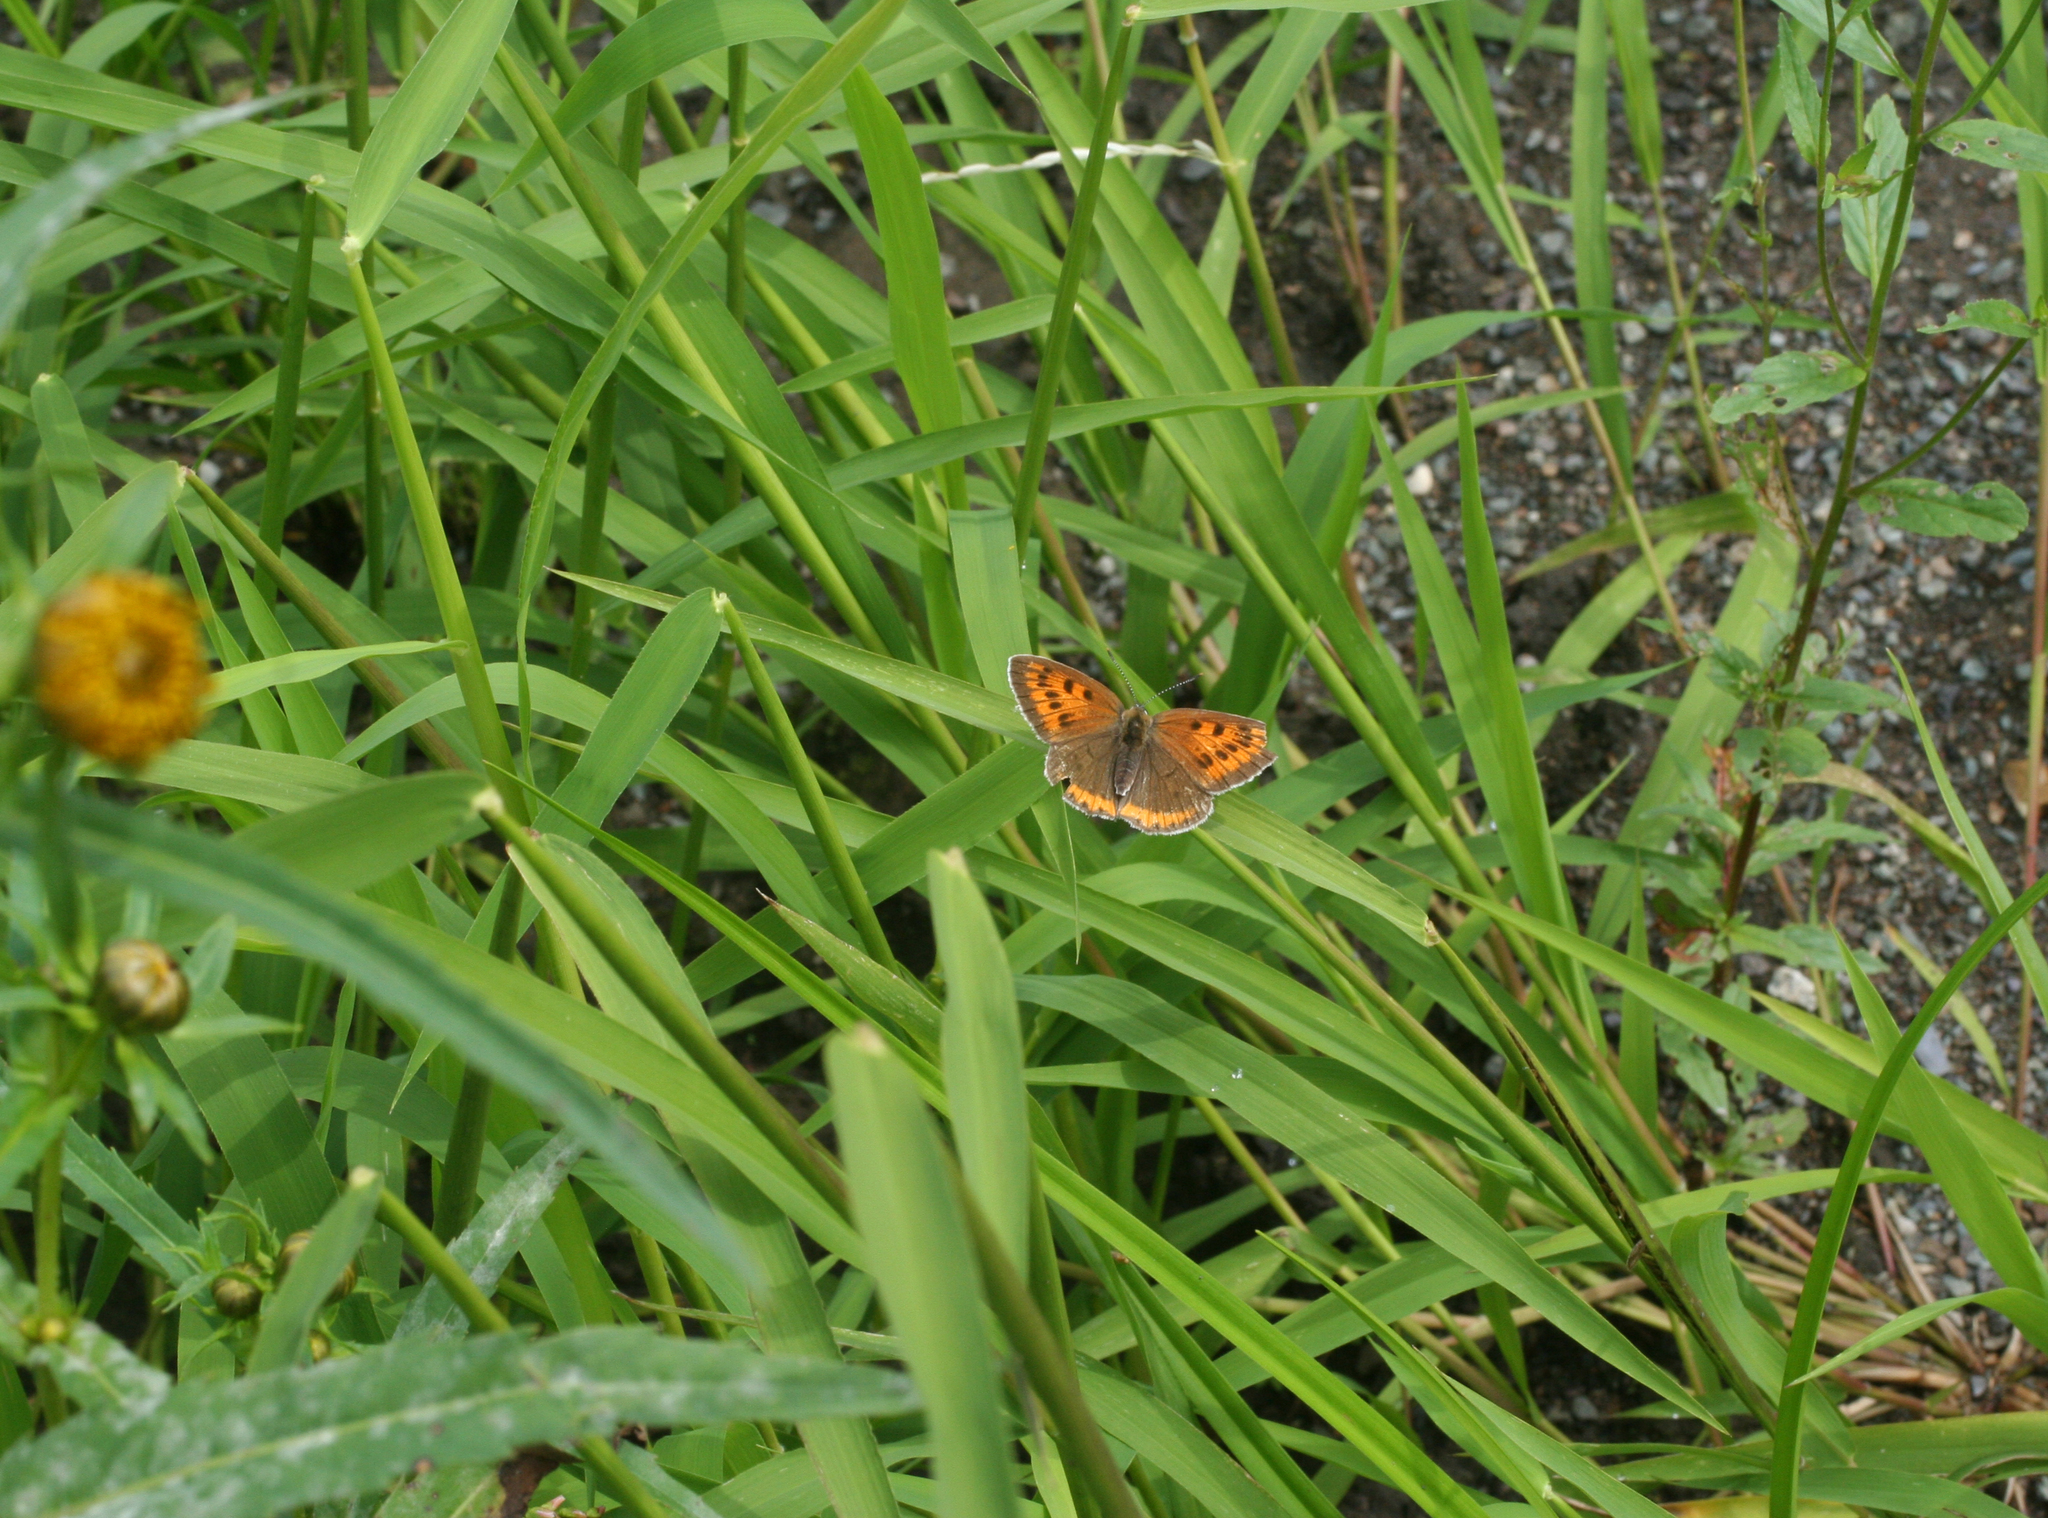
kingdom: Animalia
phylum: Arthropoda
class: Insecta
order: Lepidoptera
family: Lycaenidae
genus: Lycaena
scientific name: Lycaena dispar
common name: Large copper
